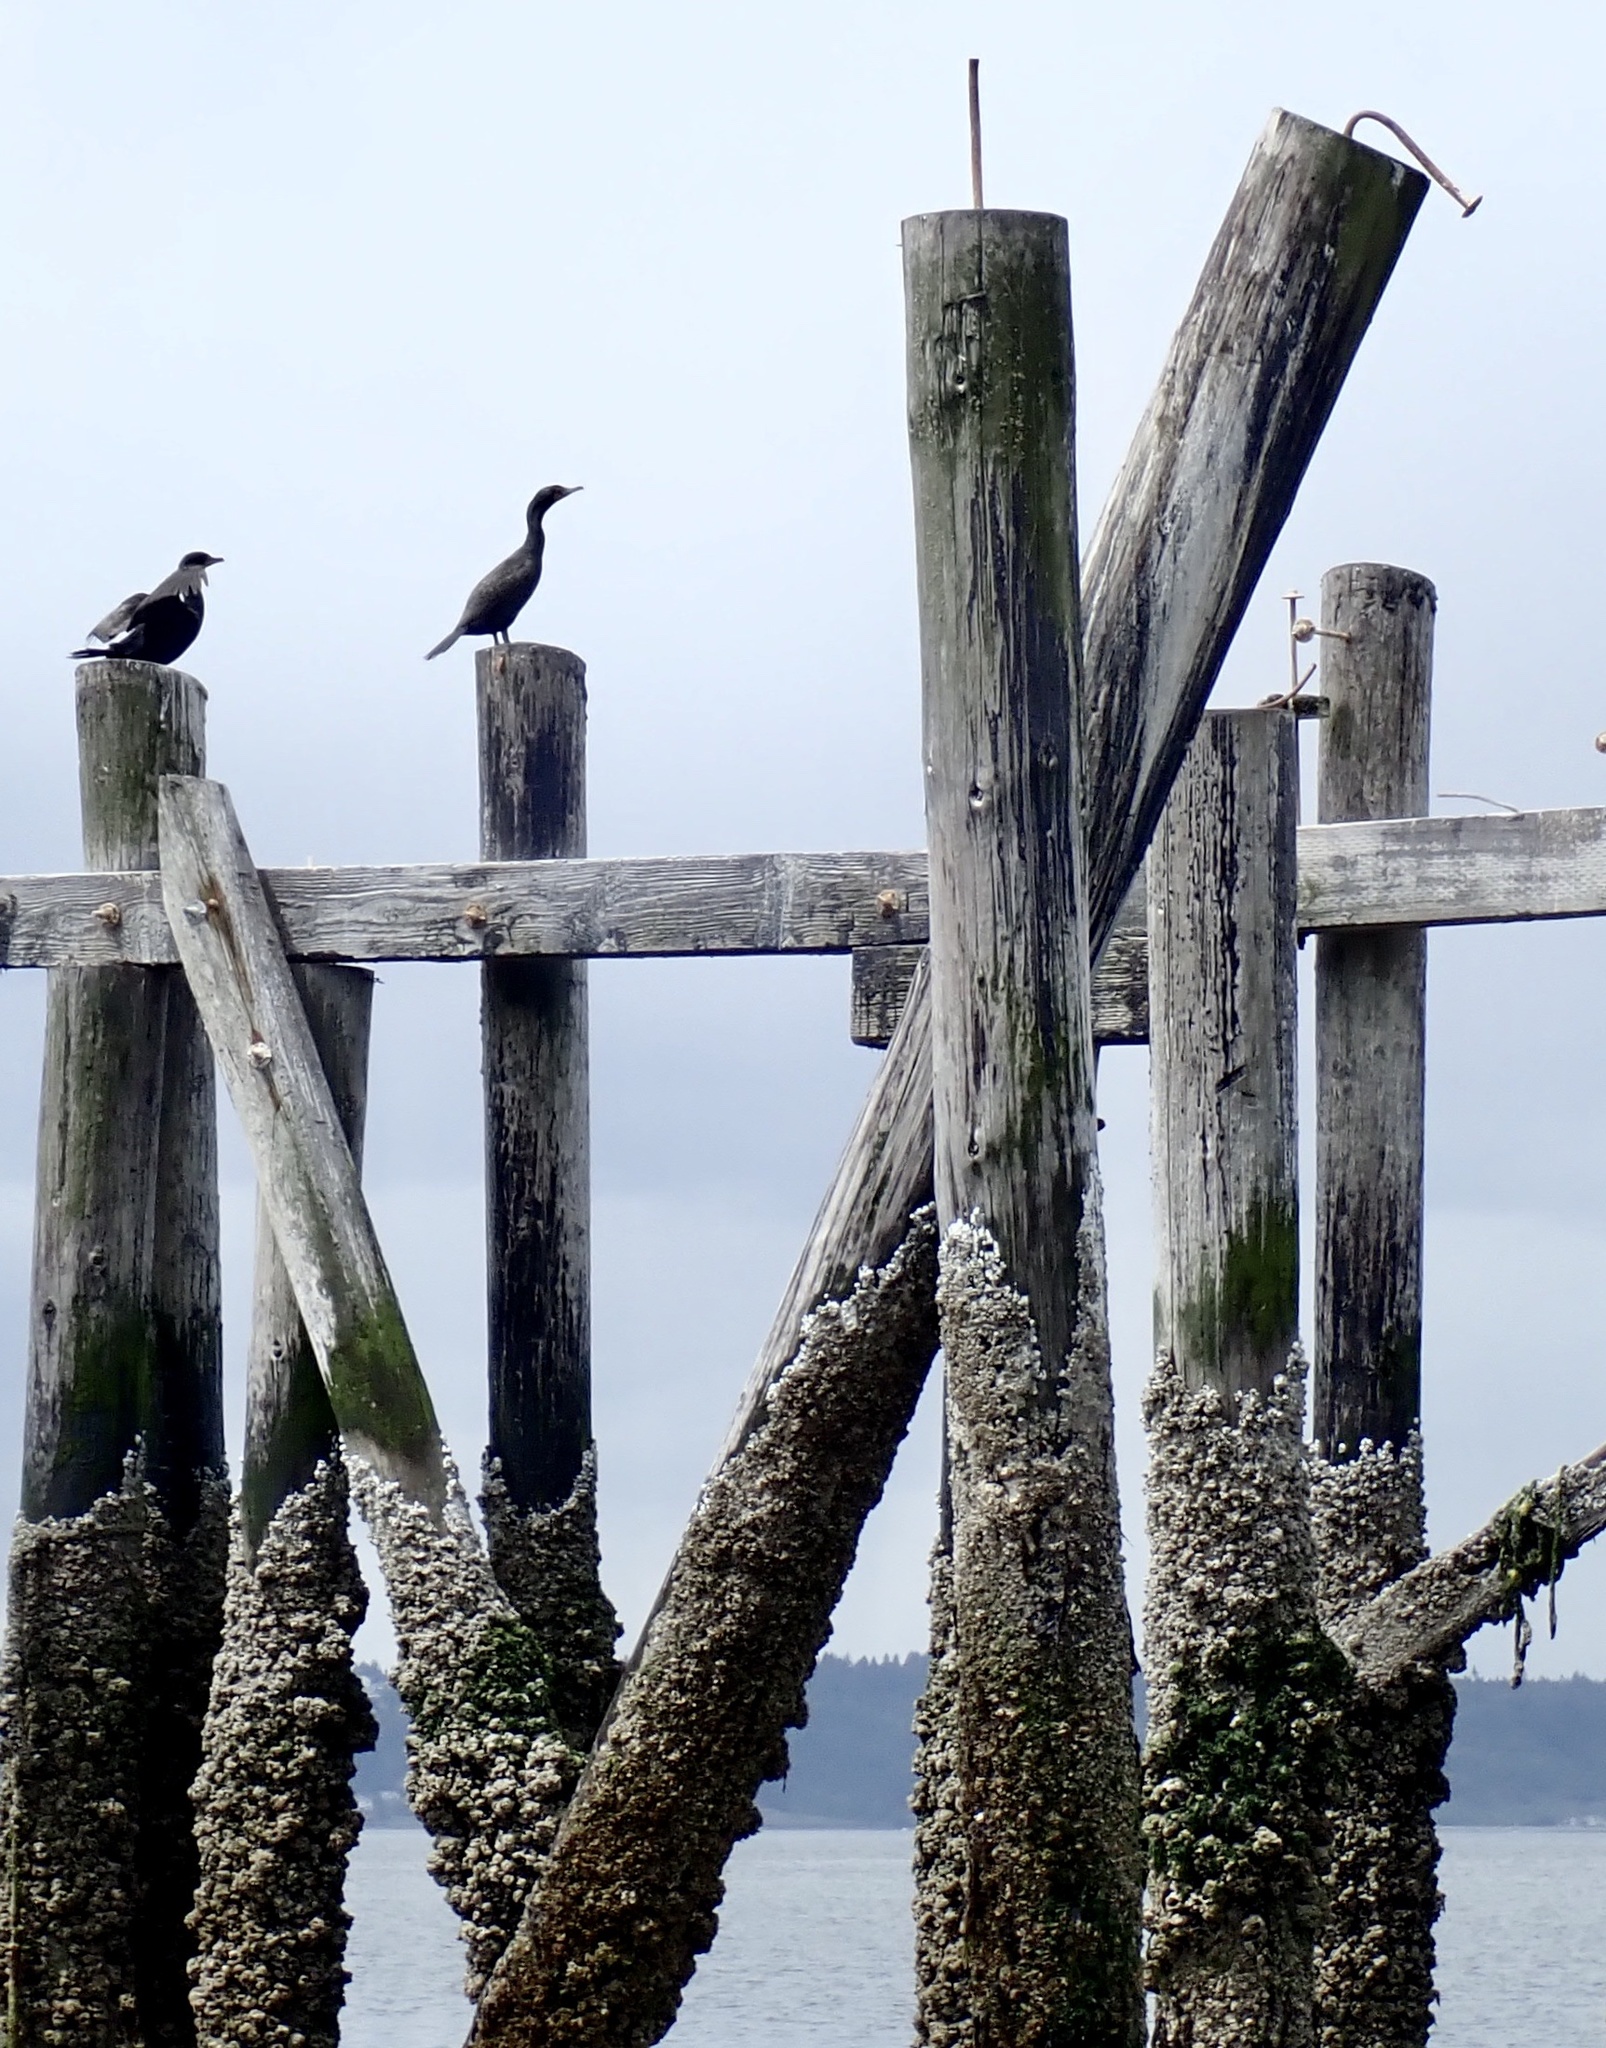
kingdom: Animalia
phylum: Chordata
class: Aves
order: Suliformes
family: Phalacrocoracidae
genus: Phalacrocorax
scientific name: Phalacrocorax auritus
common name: Double-crested cormorant
